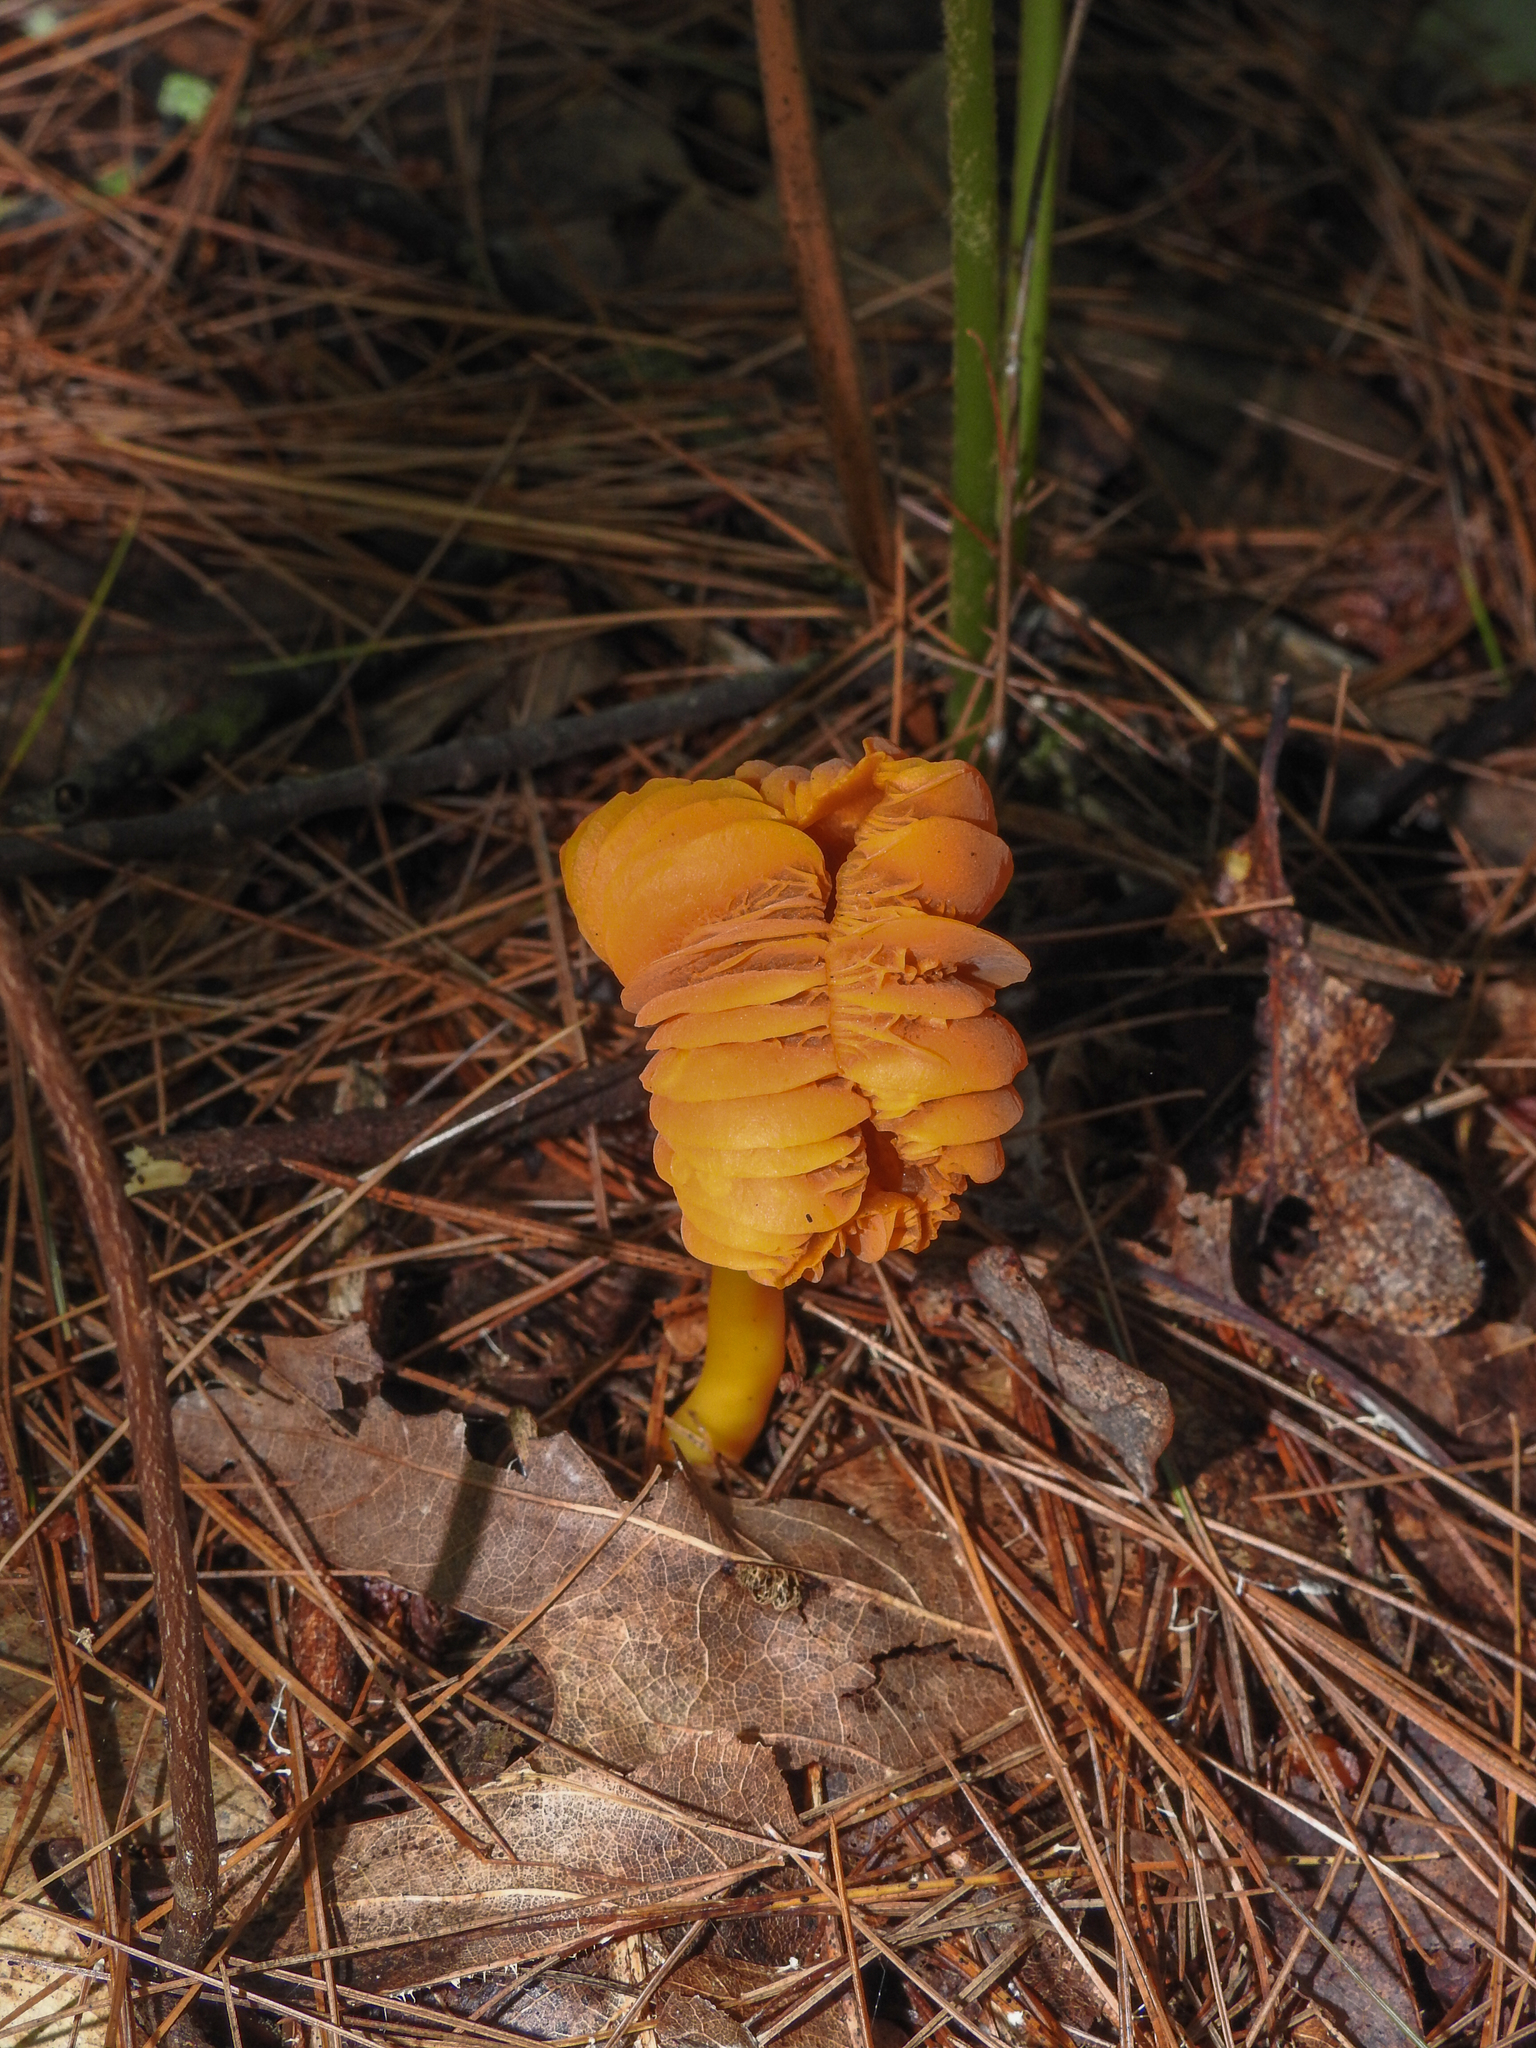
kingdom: Fungi
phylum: Basidiomycota
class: Agaricomycetes
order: Agaricales
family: Hygrophoraceae
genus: Humidicutis
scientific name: Humidicutis marginata
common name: Orange gilled waxcap
